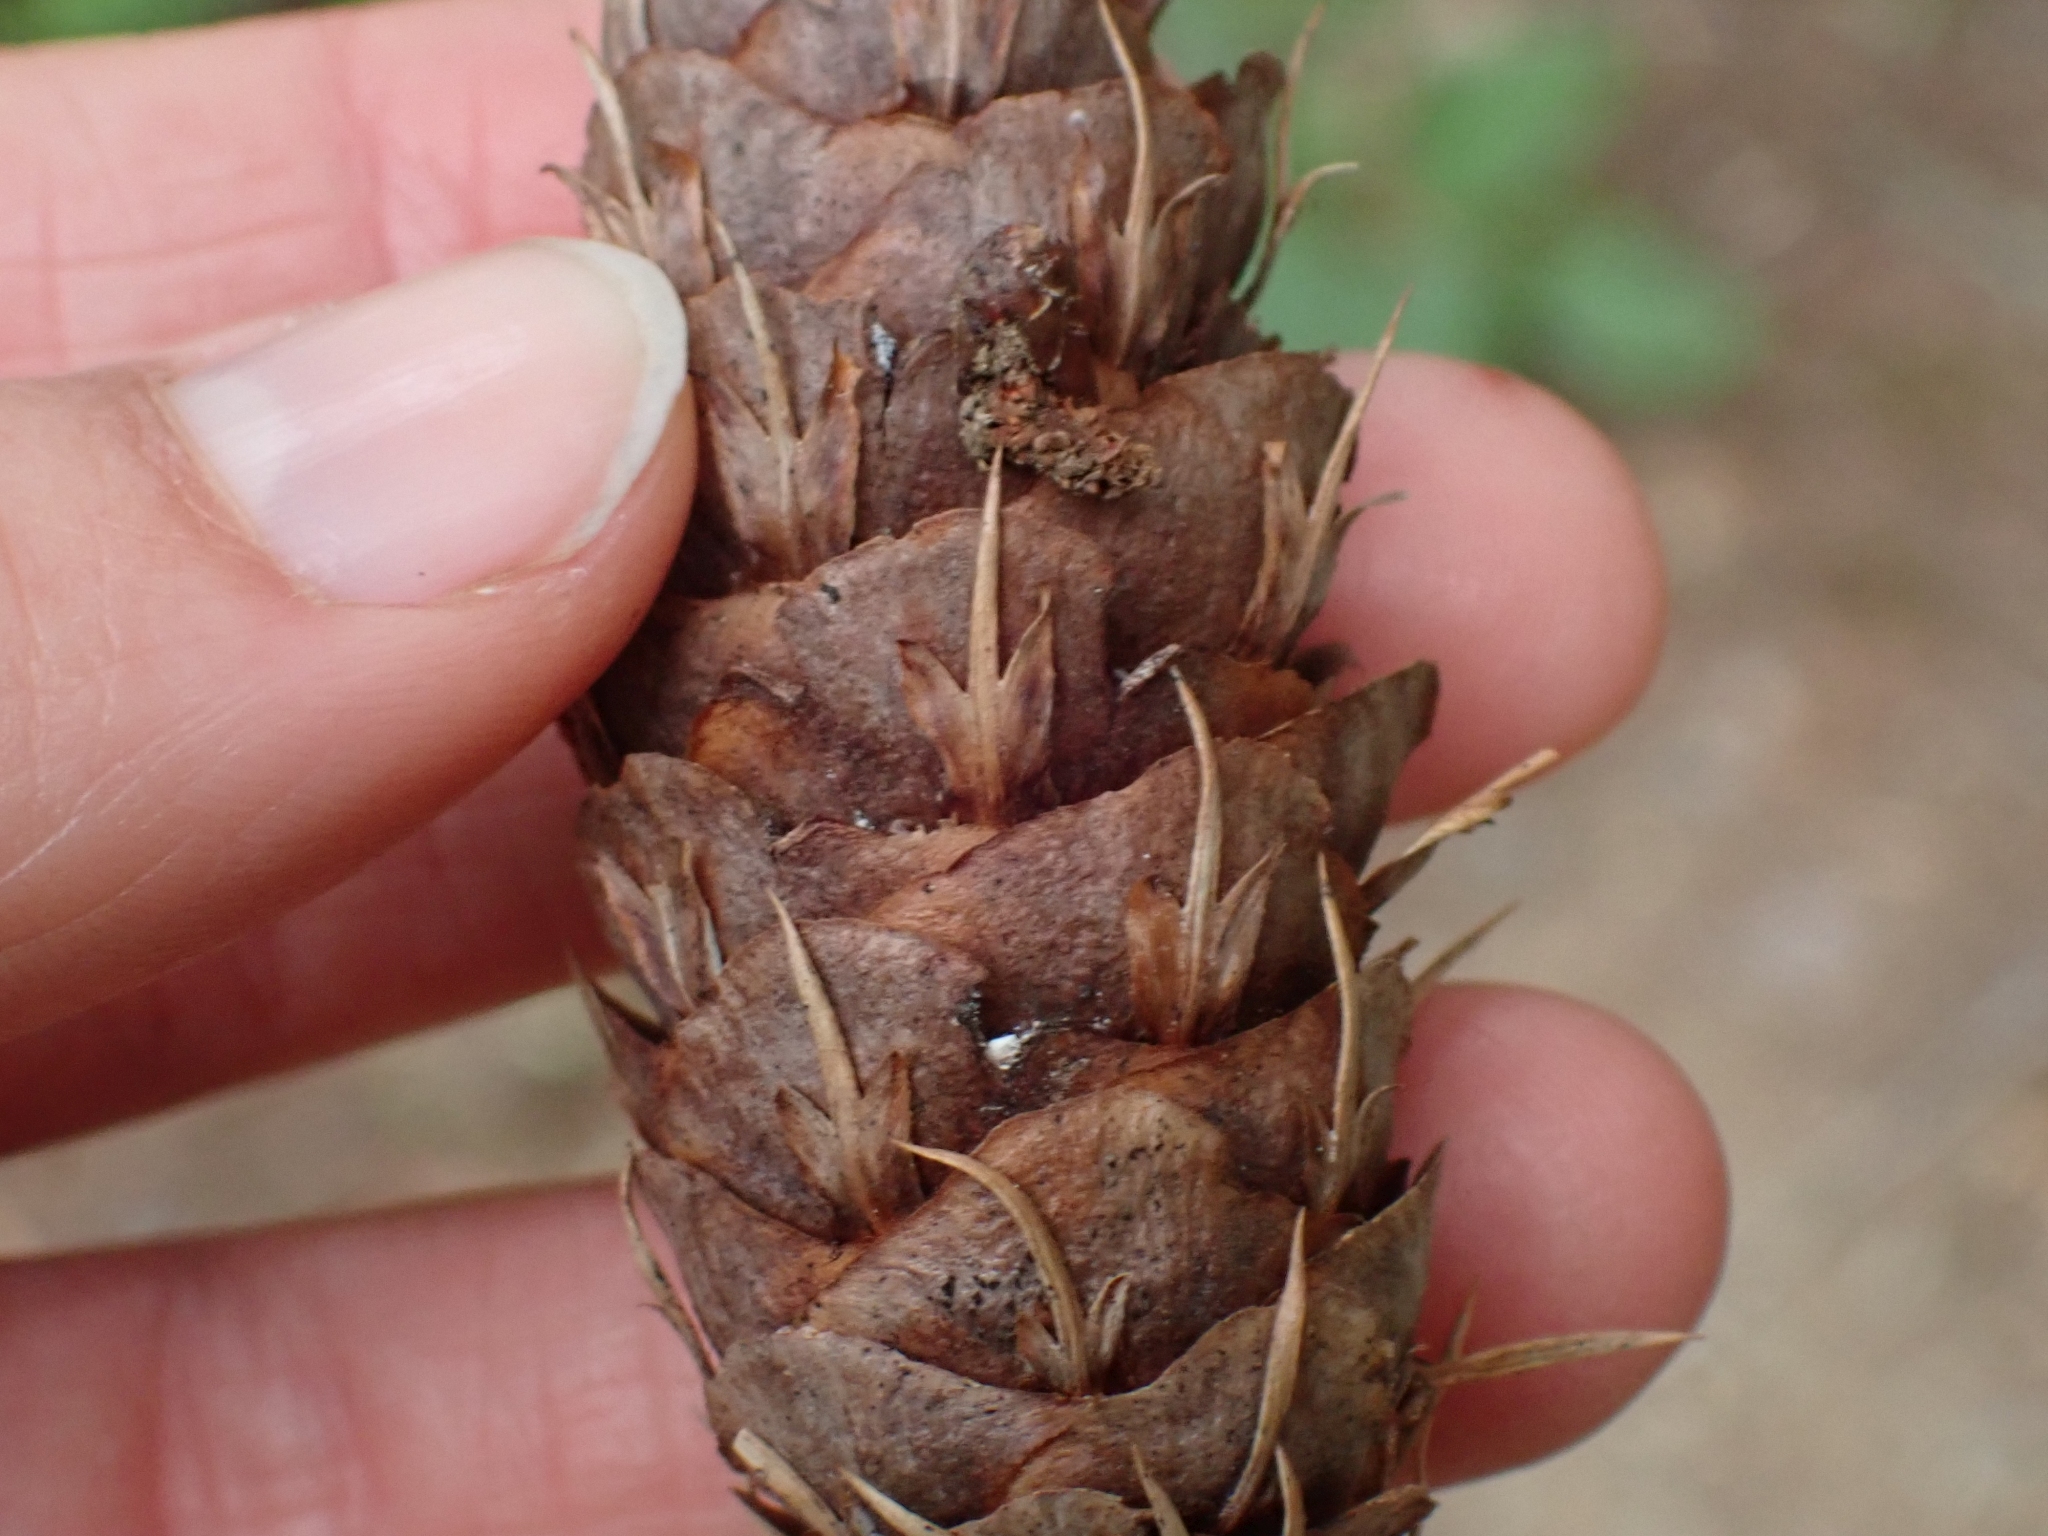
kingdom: Plantae
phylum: Tracheophyta
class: Pinopsida
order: Pinales
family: Pinaceae
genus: Pseudotsuga
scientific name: Pseudotsuga menziesii
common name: Douglas fir
